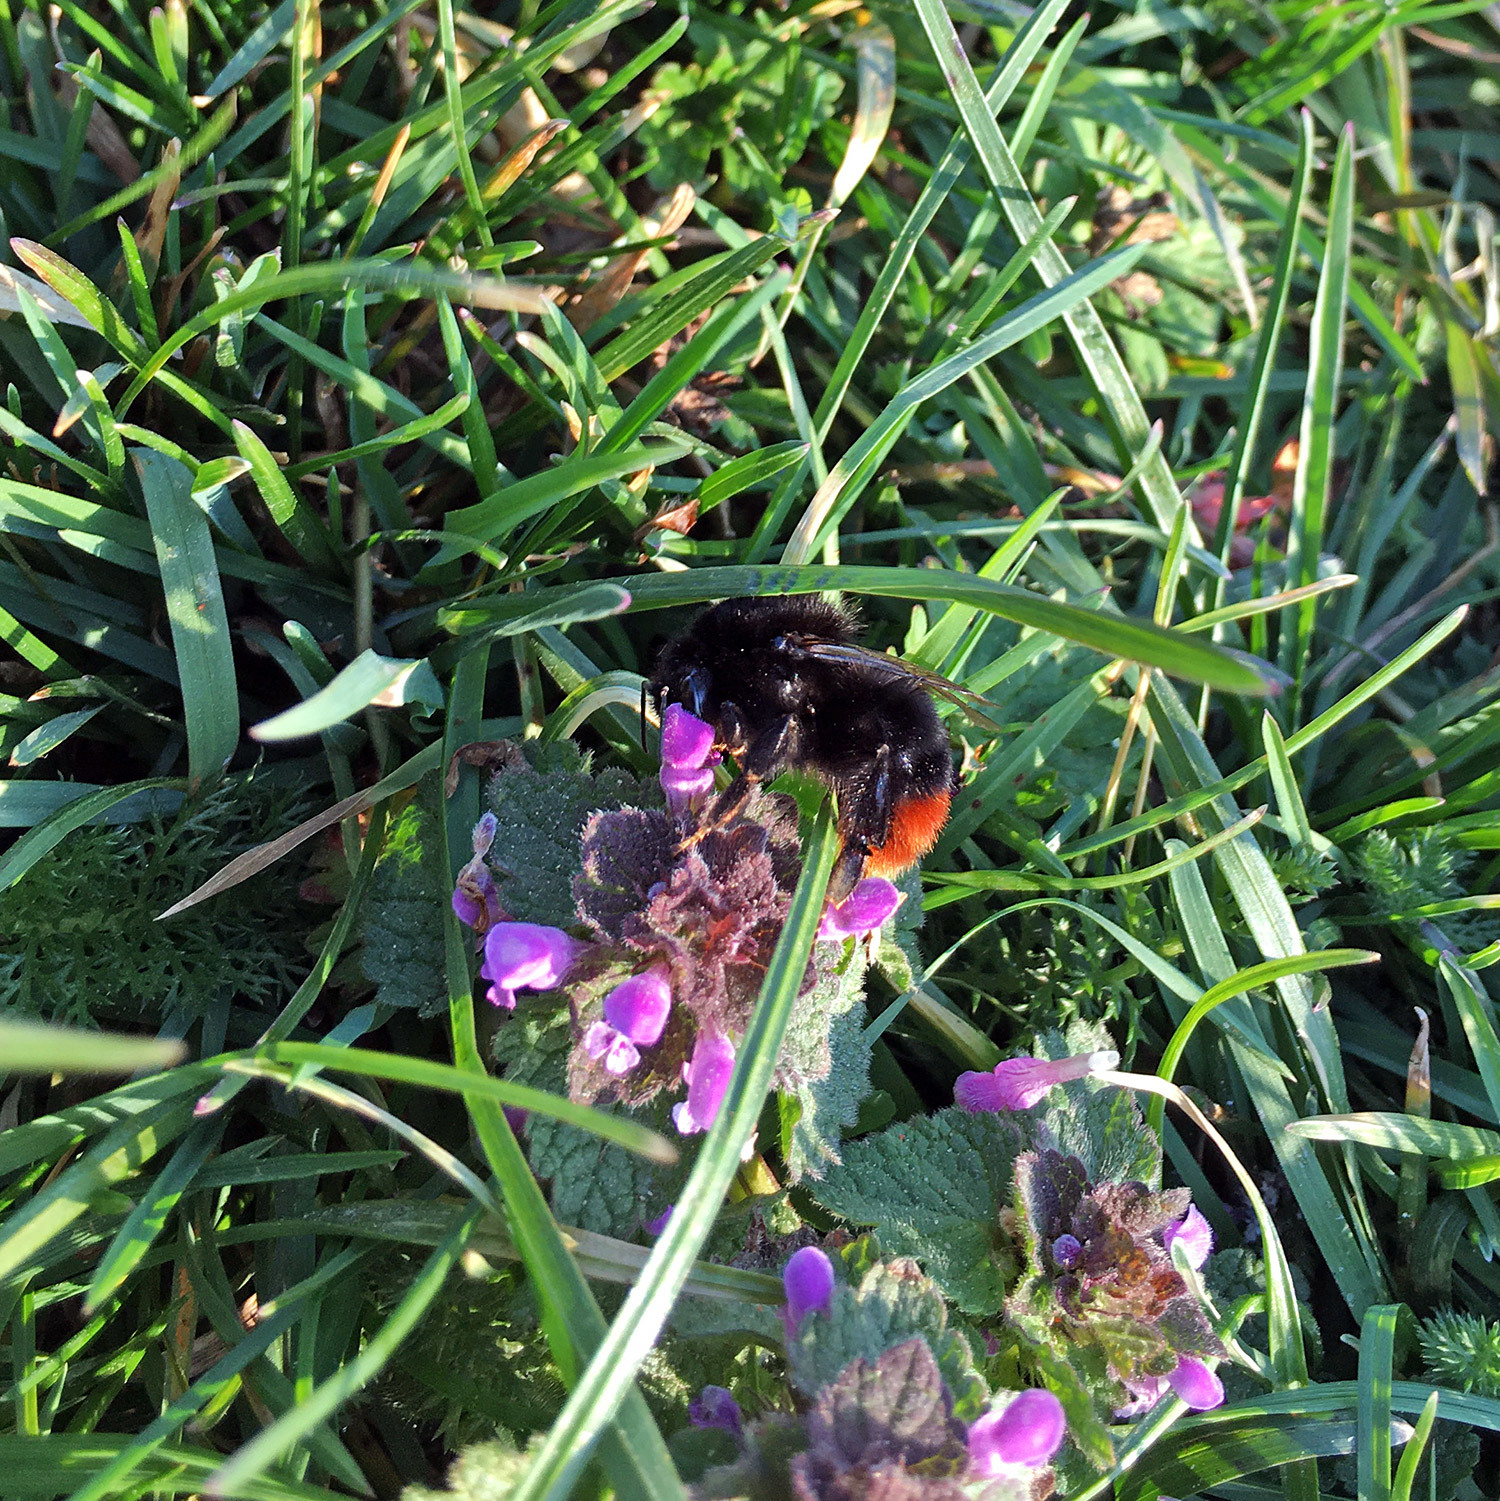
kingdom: Animalia
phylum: Arthropoda
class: Insecta
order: Hymenoptera
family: Apidae
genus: Bombus
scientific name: Bombus lapidarius
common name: Large red-tailed humble-bee
